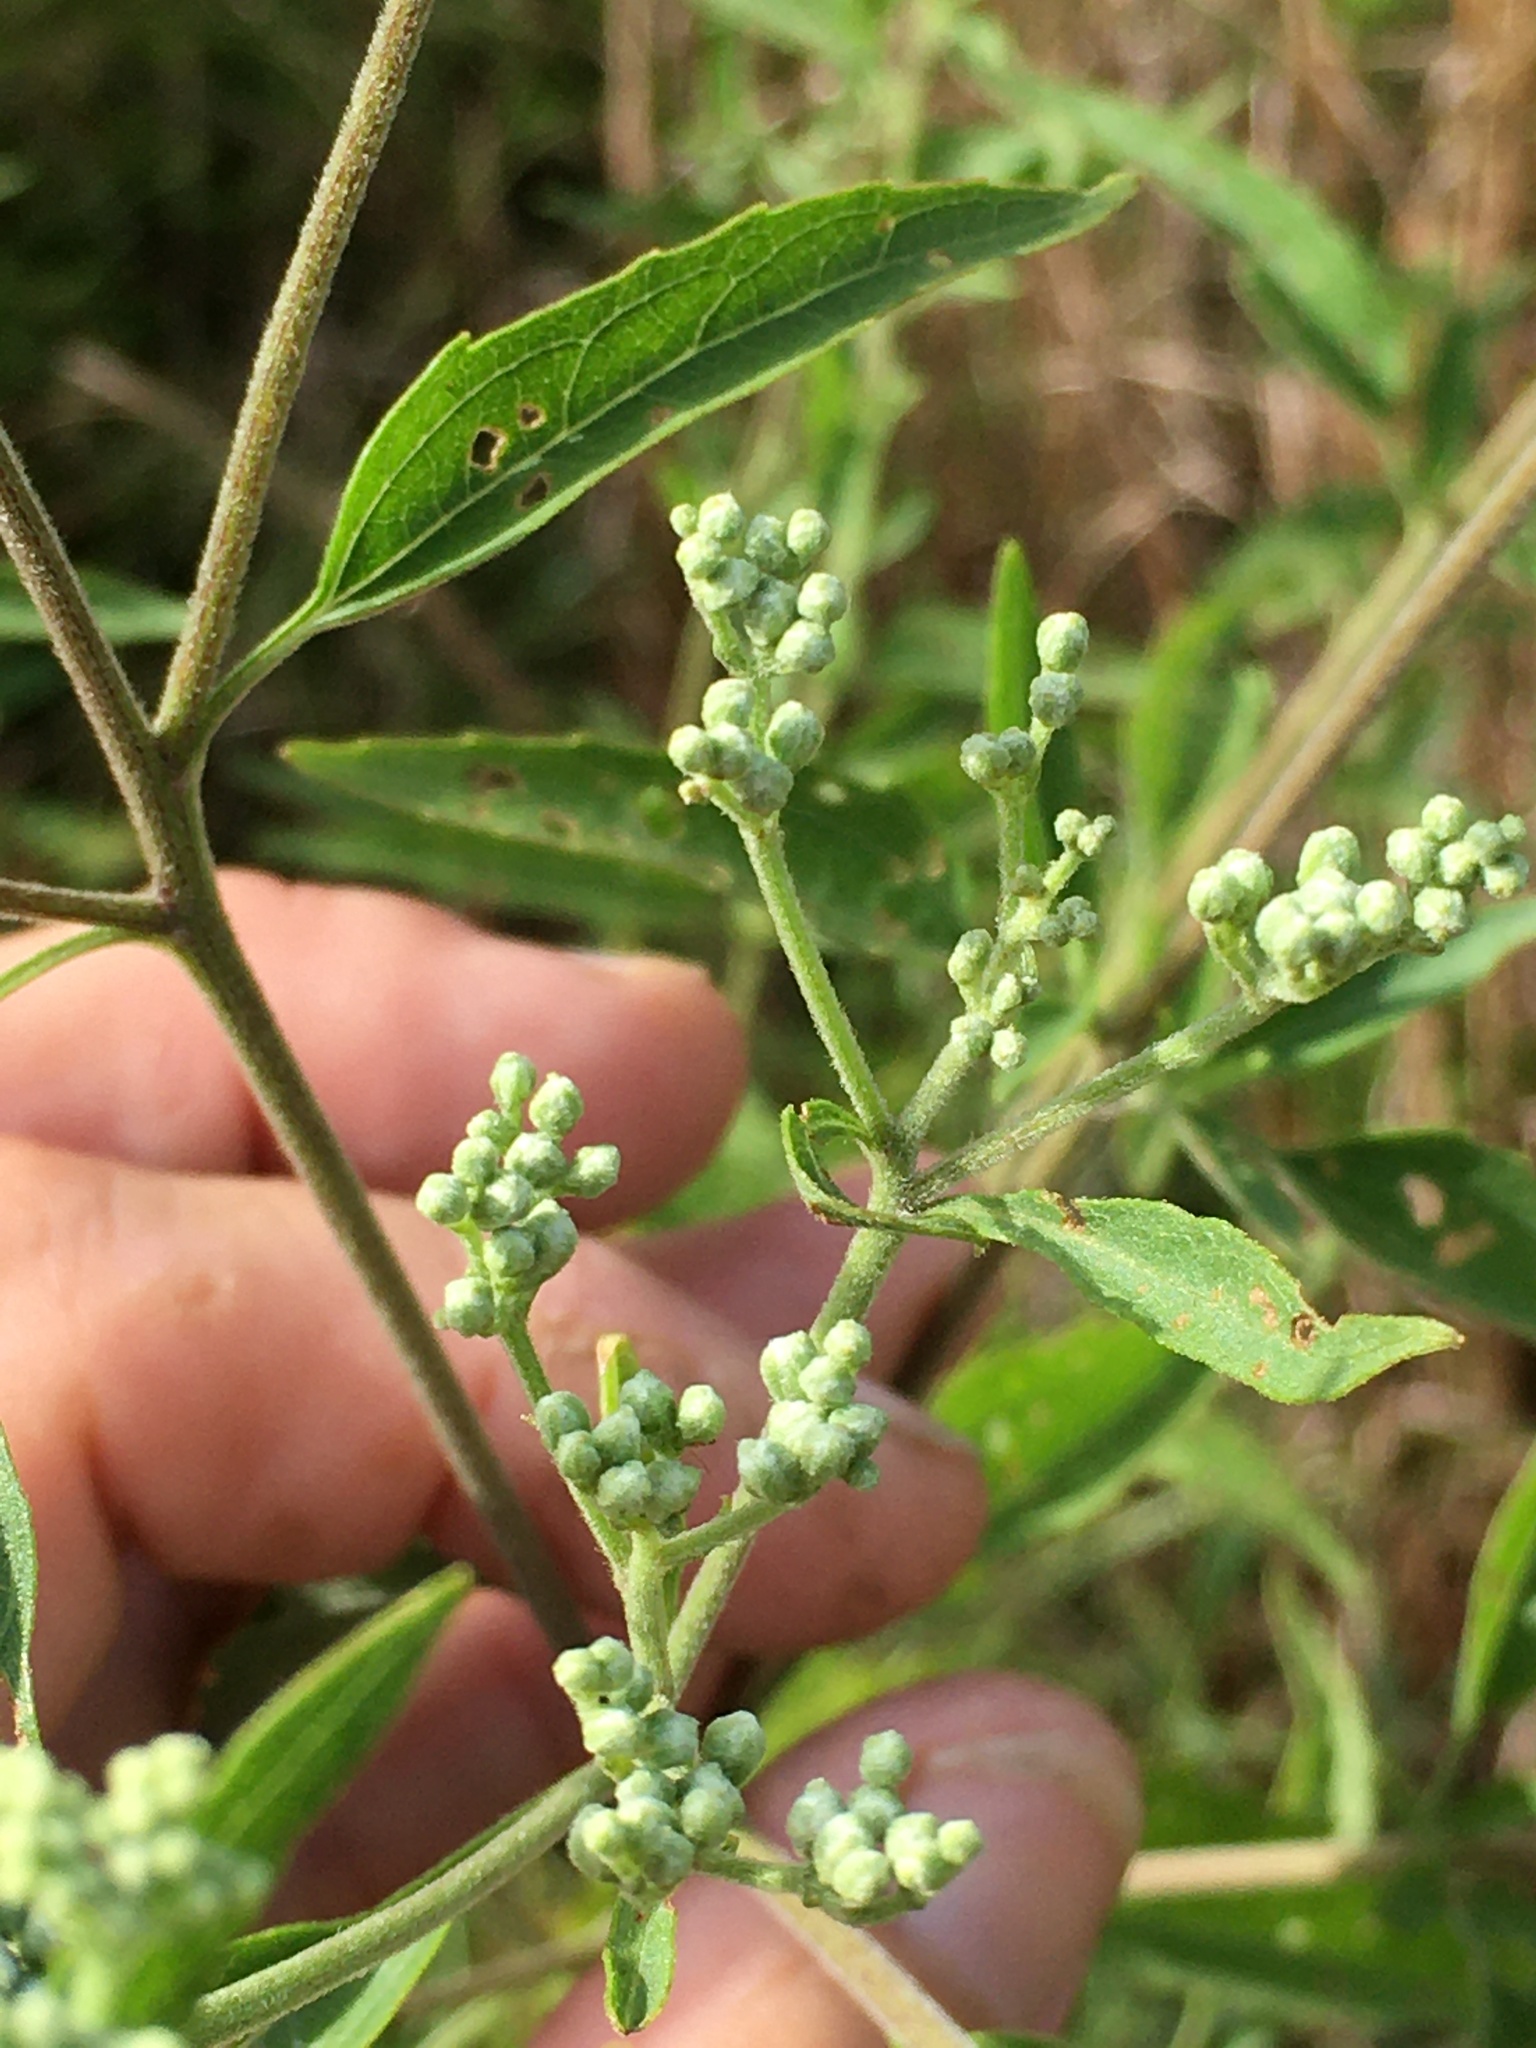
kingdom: Plantae
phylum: Tracheophyta
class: Magnoliopsida
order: Asterales
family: Asteraceae
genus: Eupatorium
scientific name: Eupatorium serotinum
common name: Late boneset
